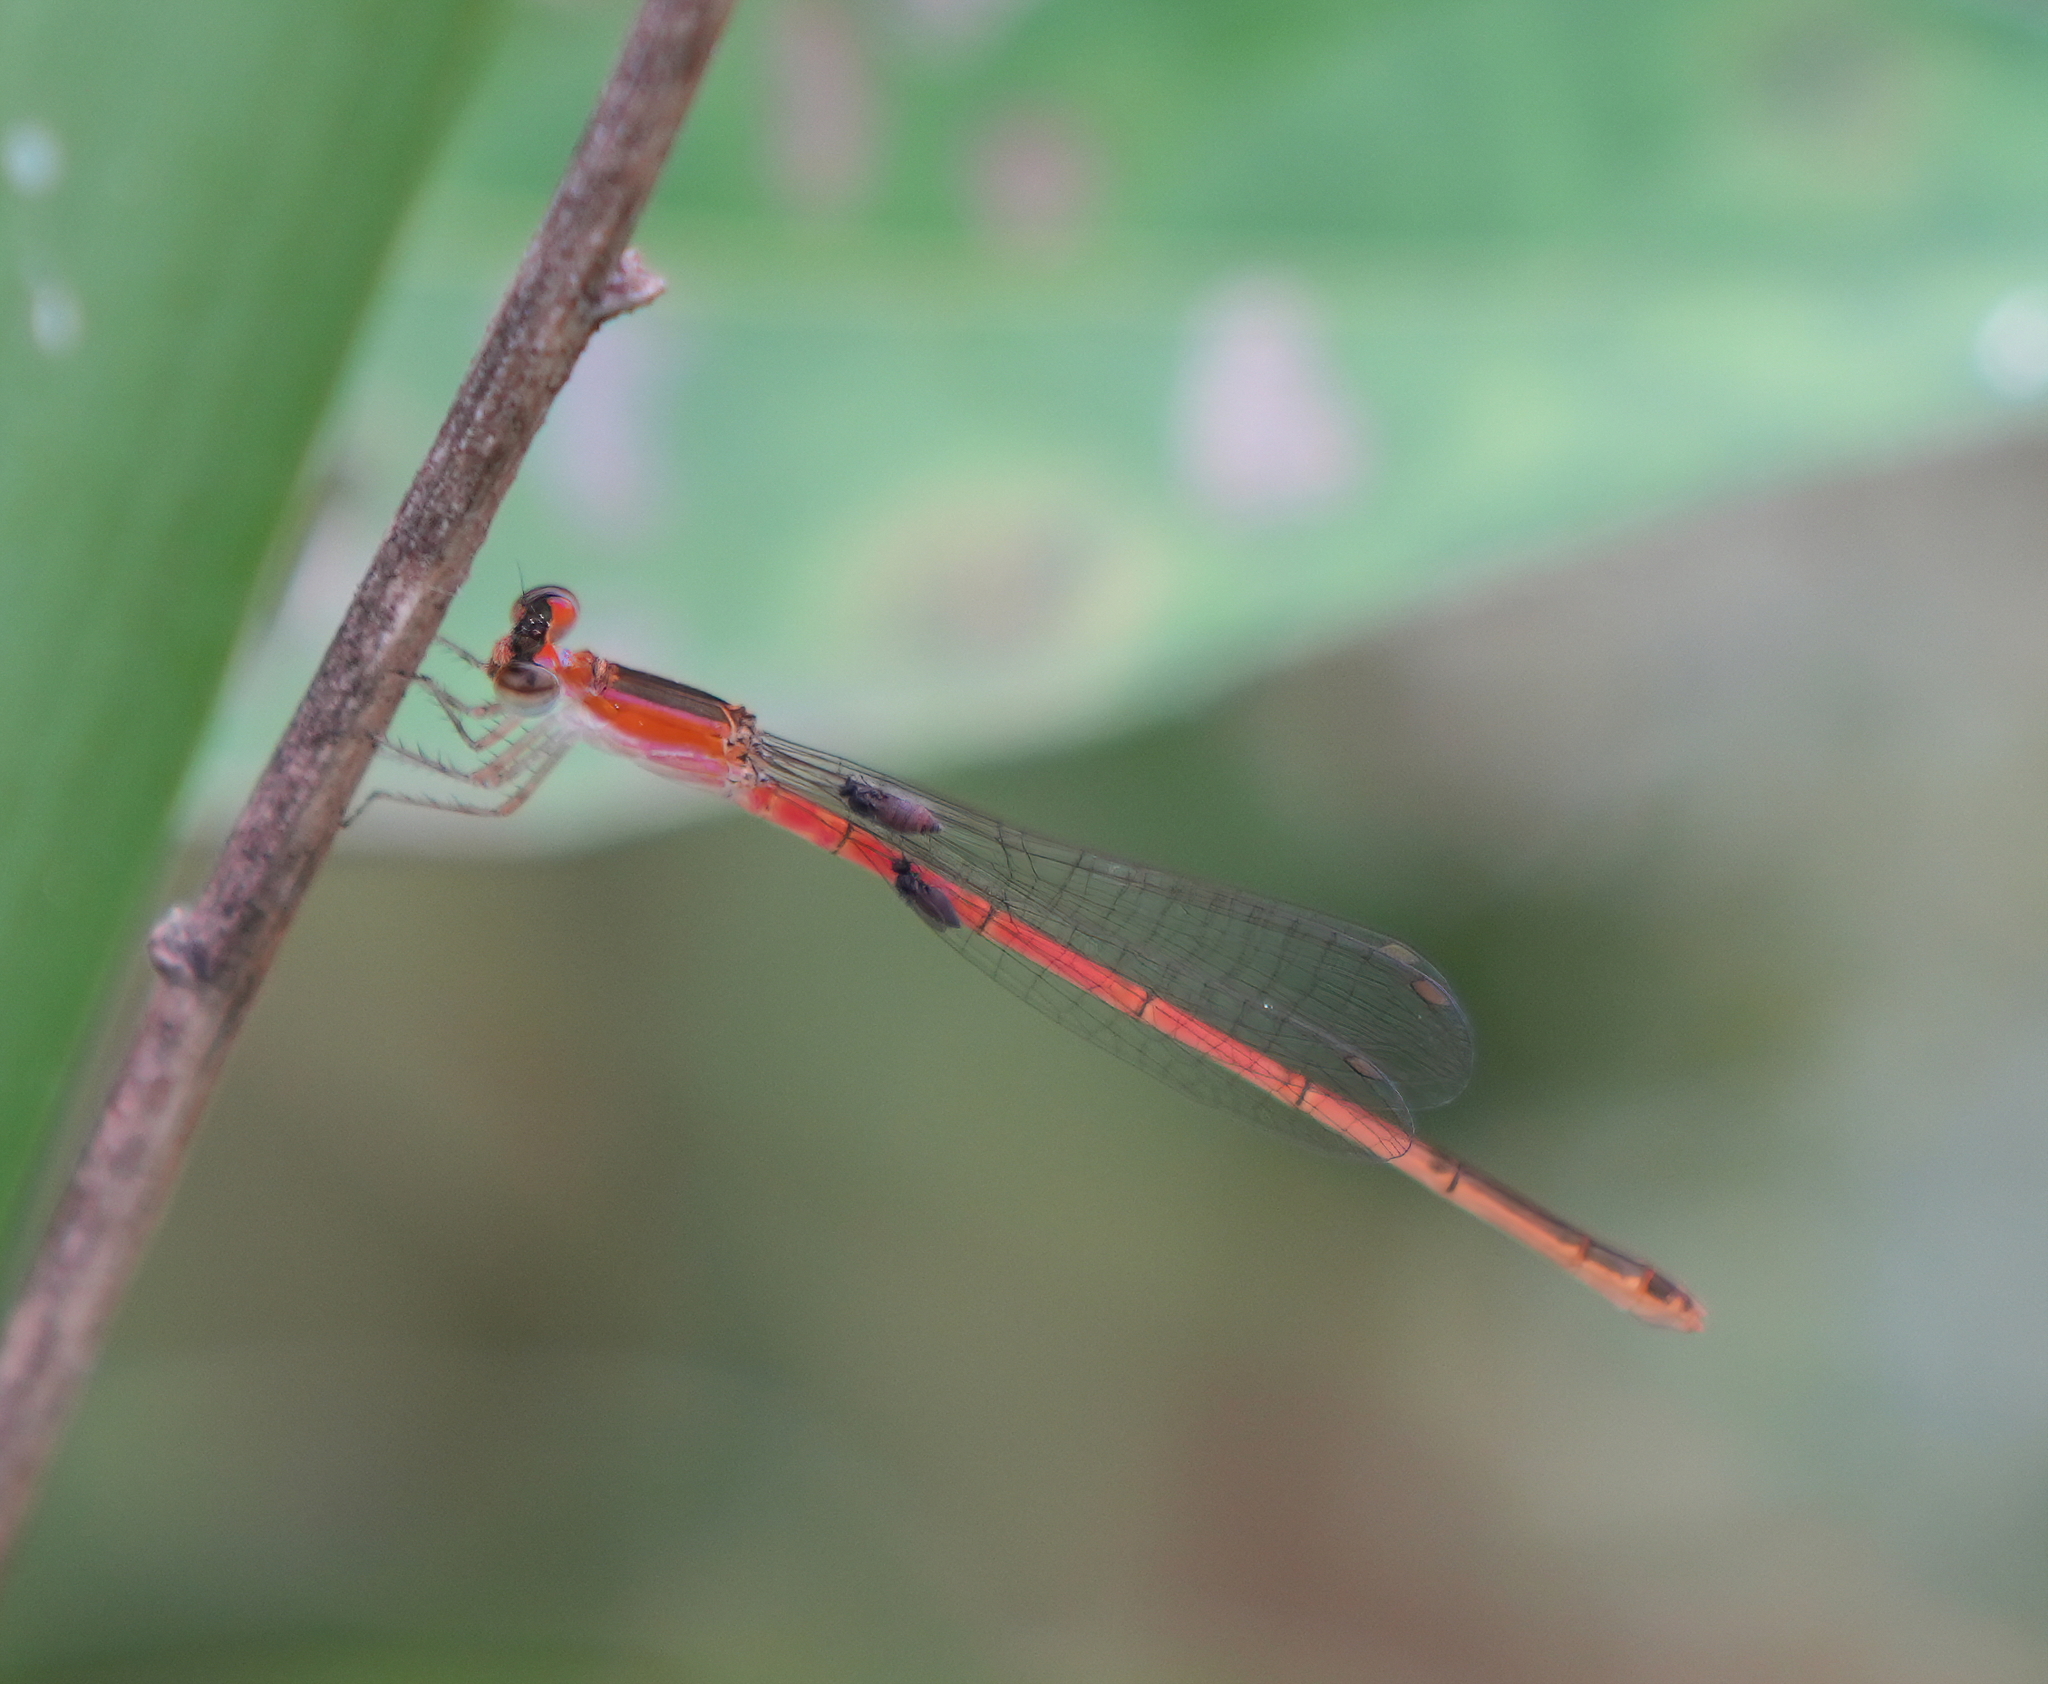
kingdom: Animalia
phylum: Arthropoda
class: Insecta
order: Odonata
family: Coenagrionidae
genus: Agriocnemis
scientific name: Agriocnemis pygmaea
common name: Pygmy wisp
